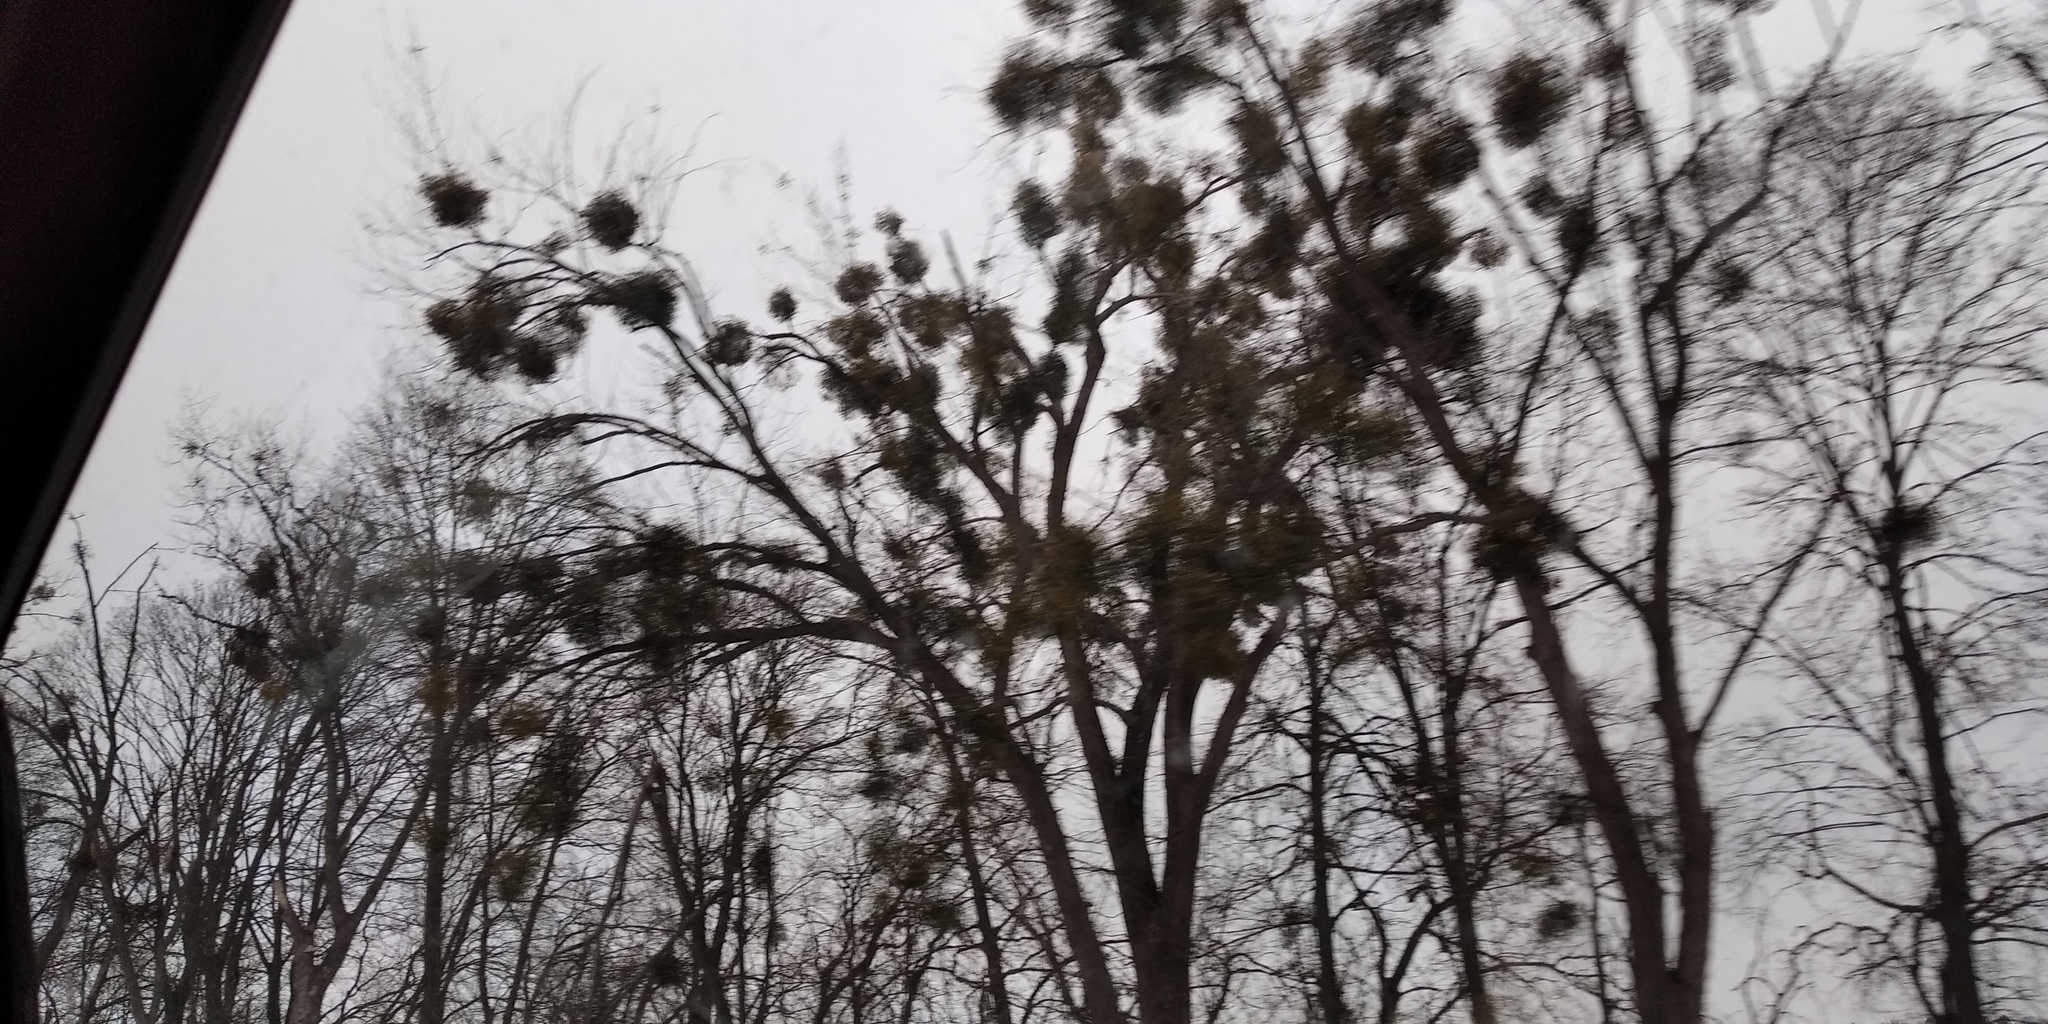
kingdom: Plantae
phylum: Tracheophyta
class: Magnoliopsida
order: Santalales
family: Viscaceae
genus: Viscum
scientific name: Viscum album
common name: Mistletoe
